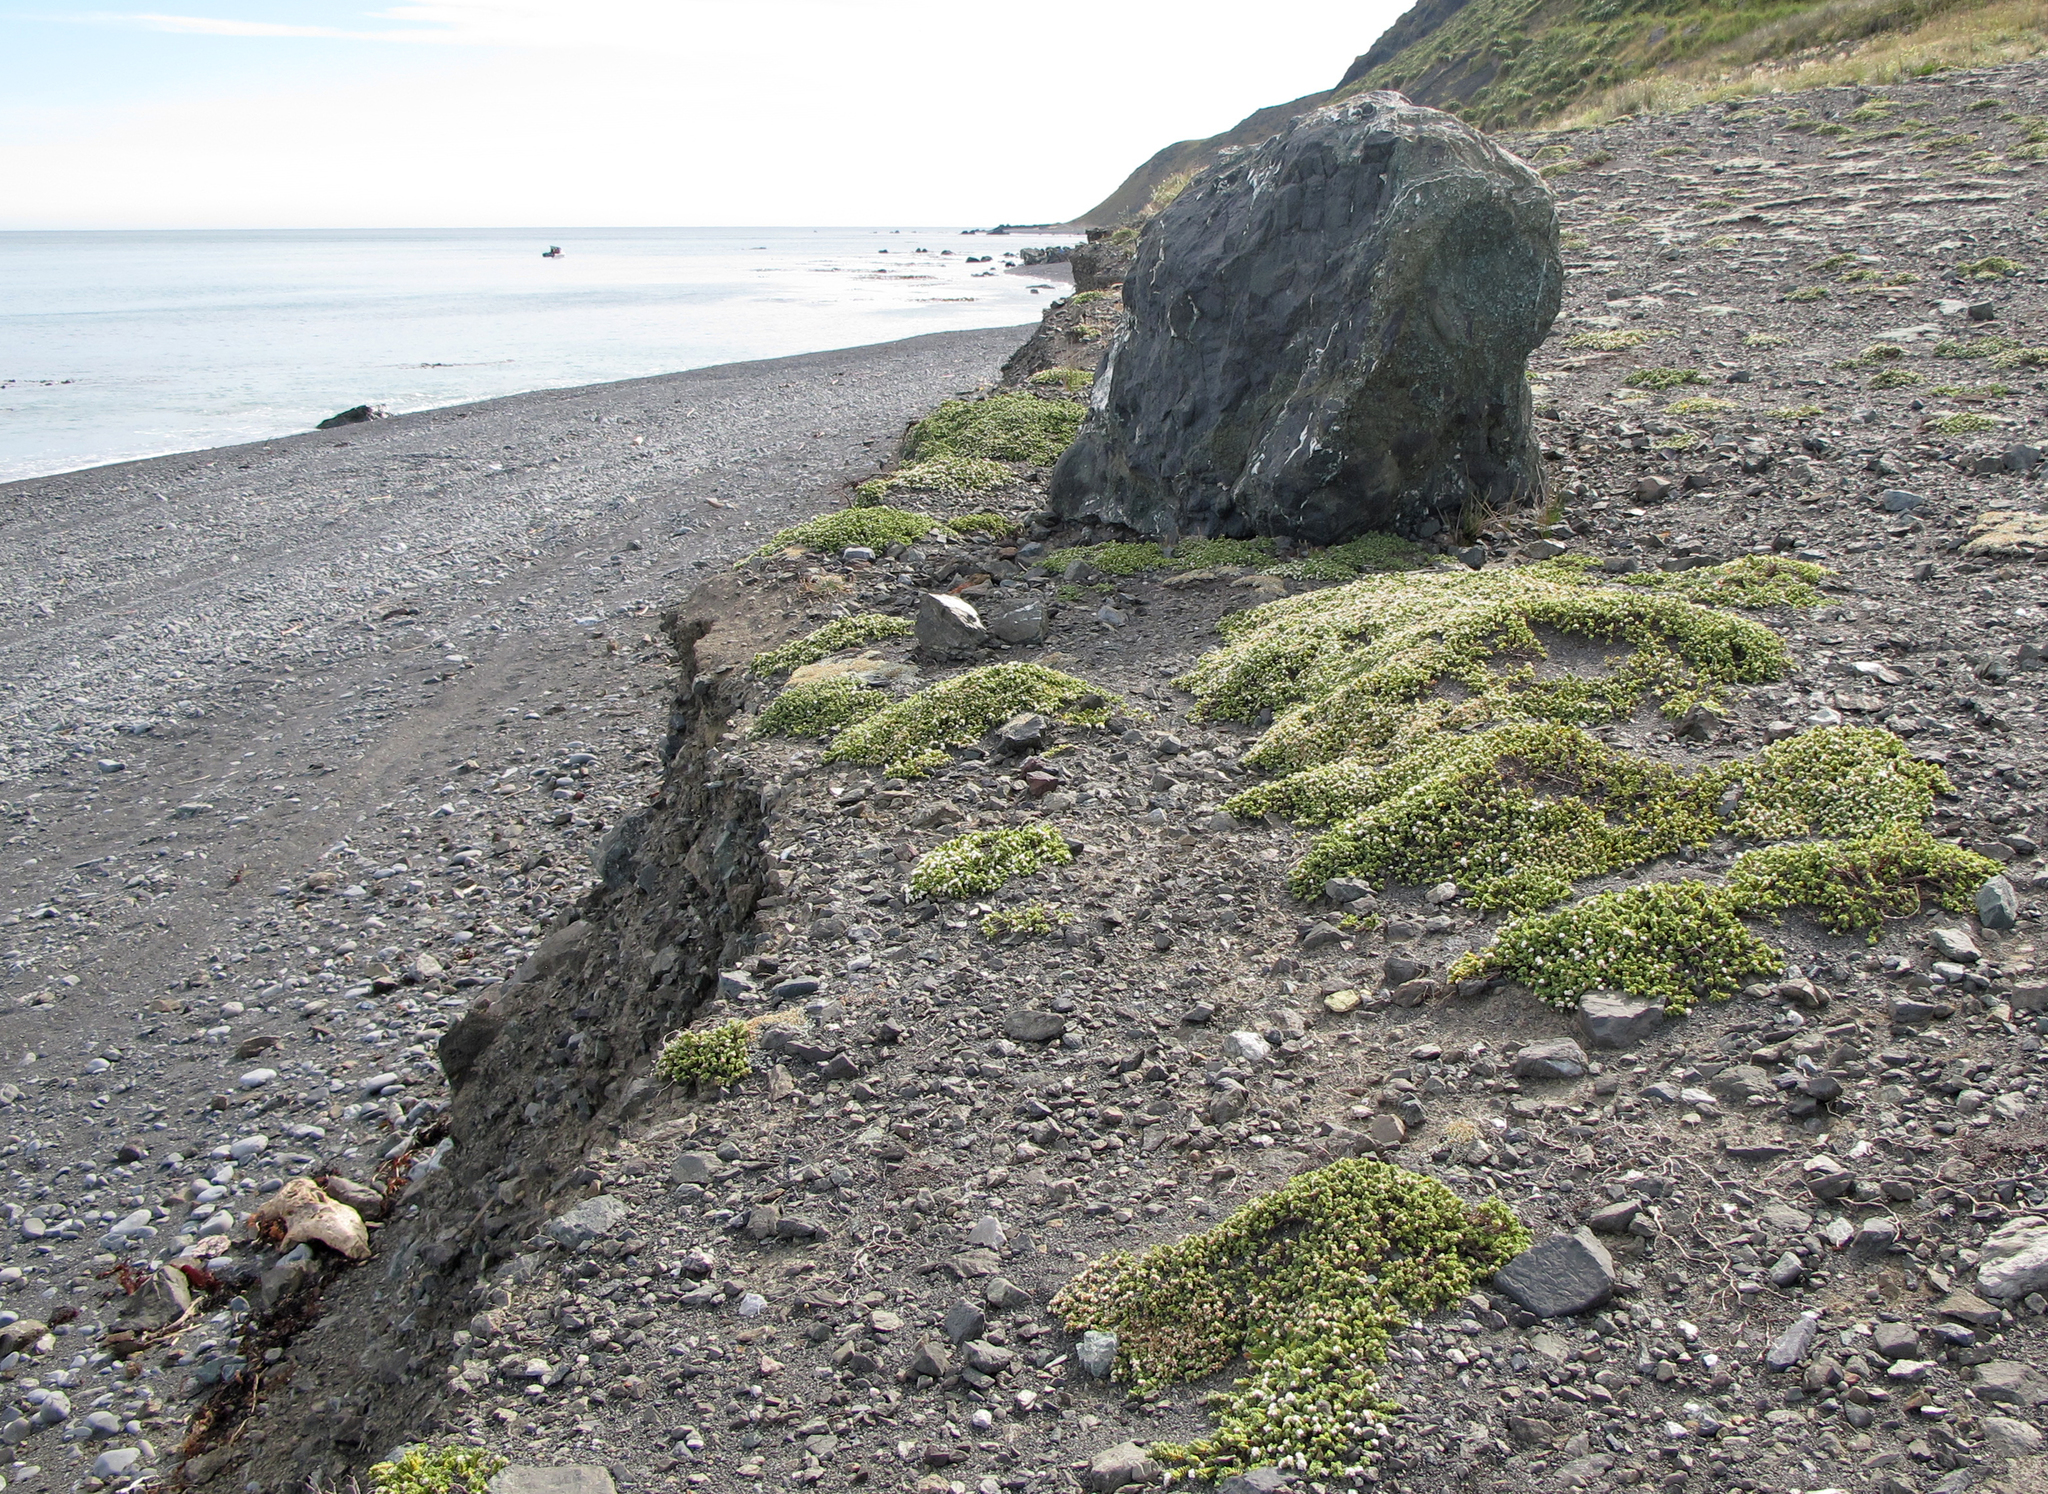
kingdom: Plantae
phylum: Tracheophyta
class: Magnoliopsida
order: Malvales
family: Thymelaeaceae
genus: Pimelea
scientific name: Pimelea prostrata
